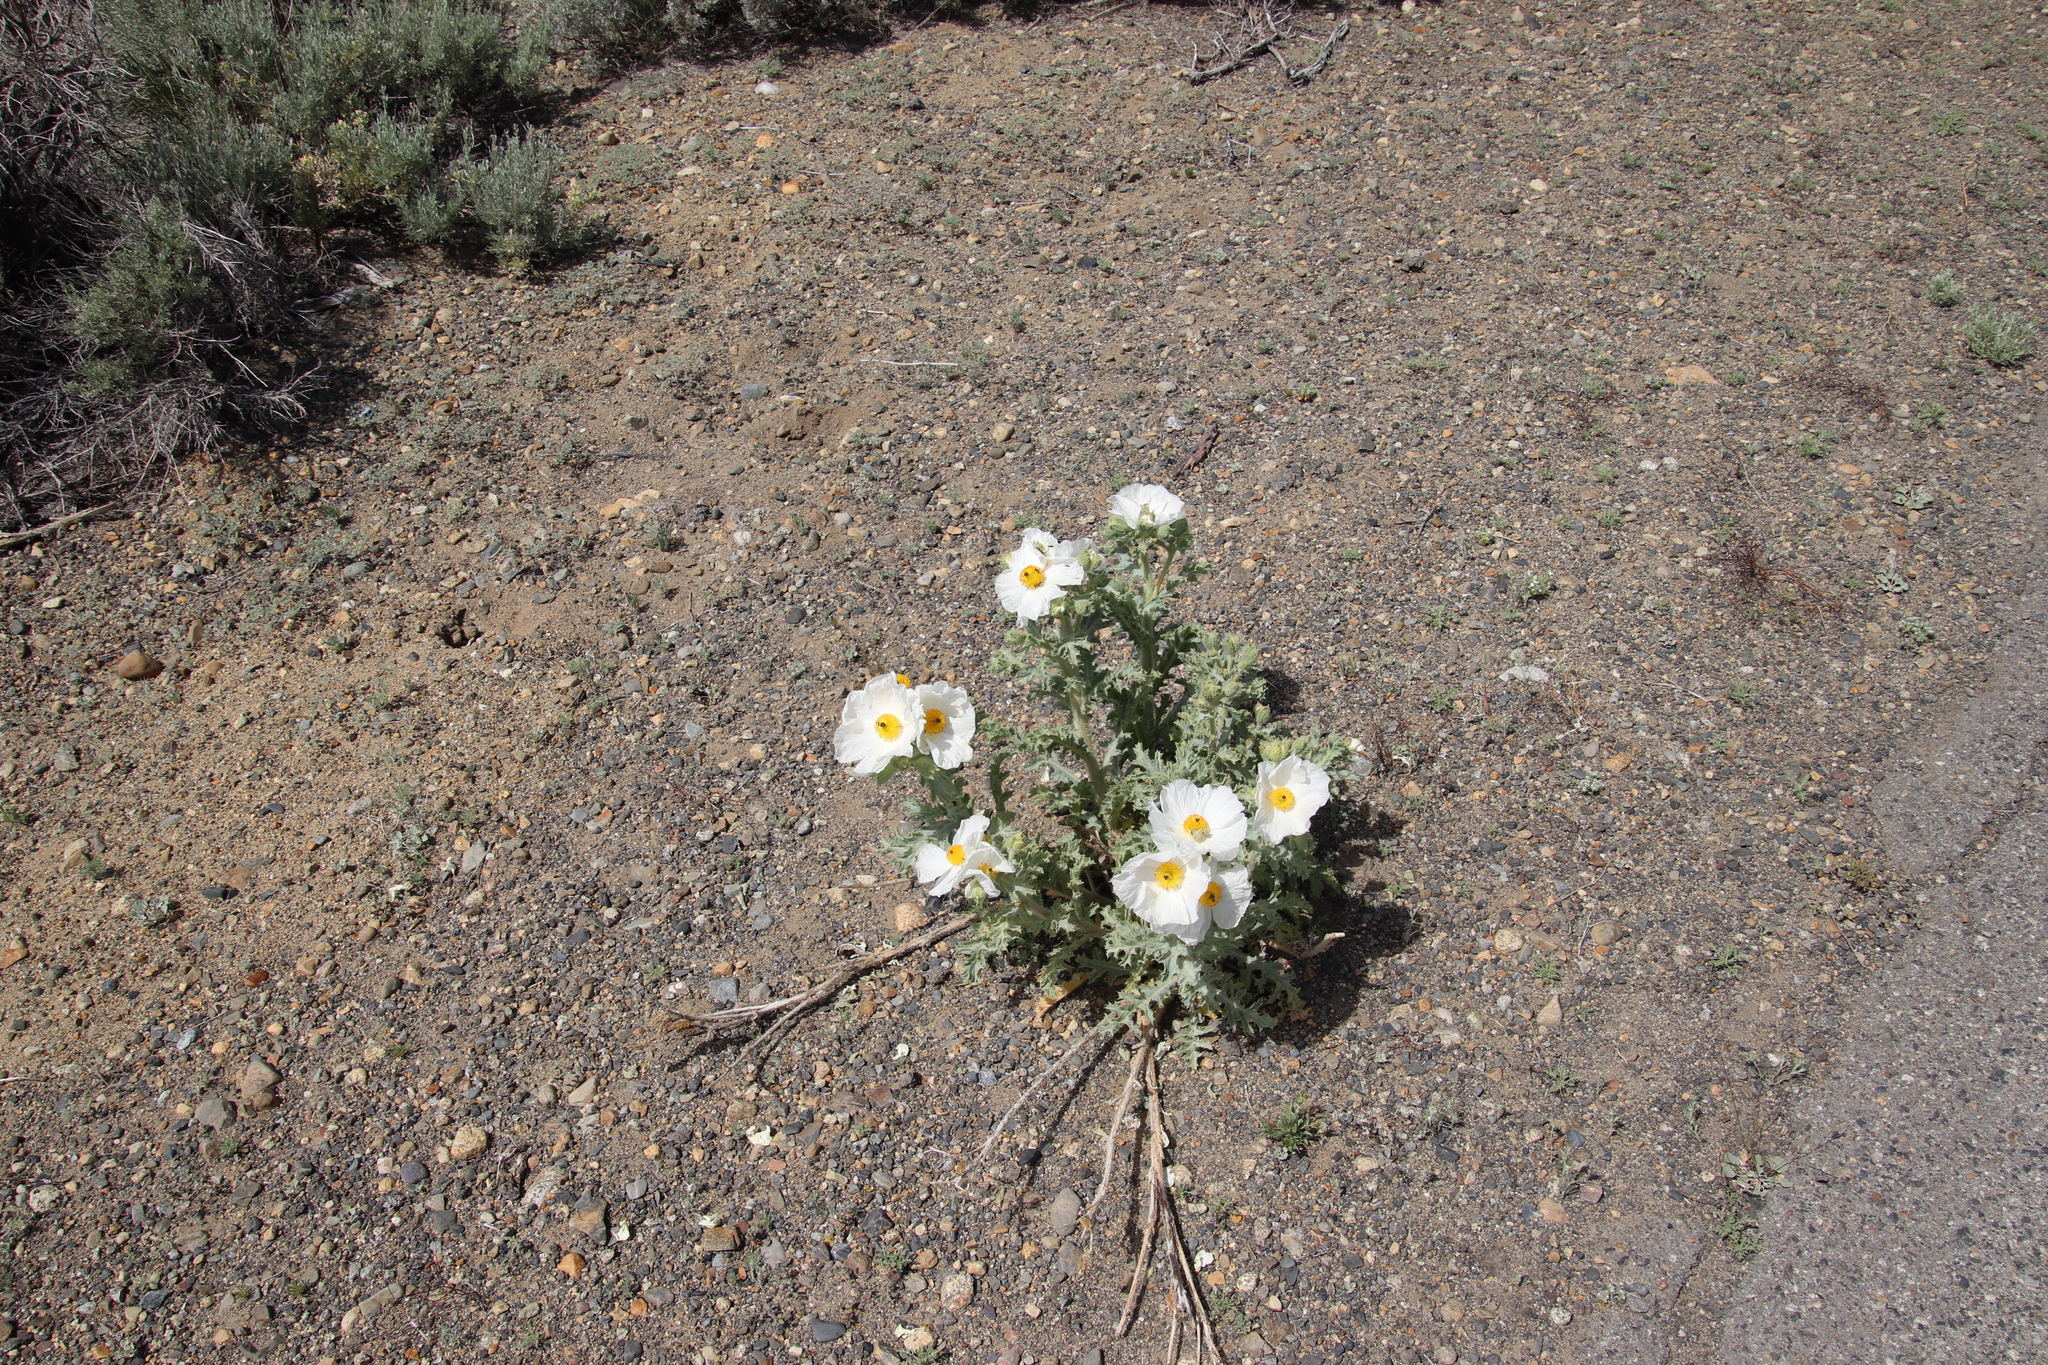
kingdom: Plantae
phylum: Tracheophyta
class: Magnoliopsida
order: Ranunculales
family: Papaveraceae
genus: Argemone
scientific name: Argemone munita
